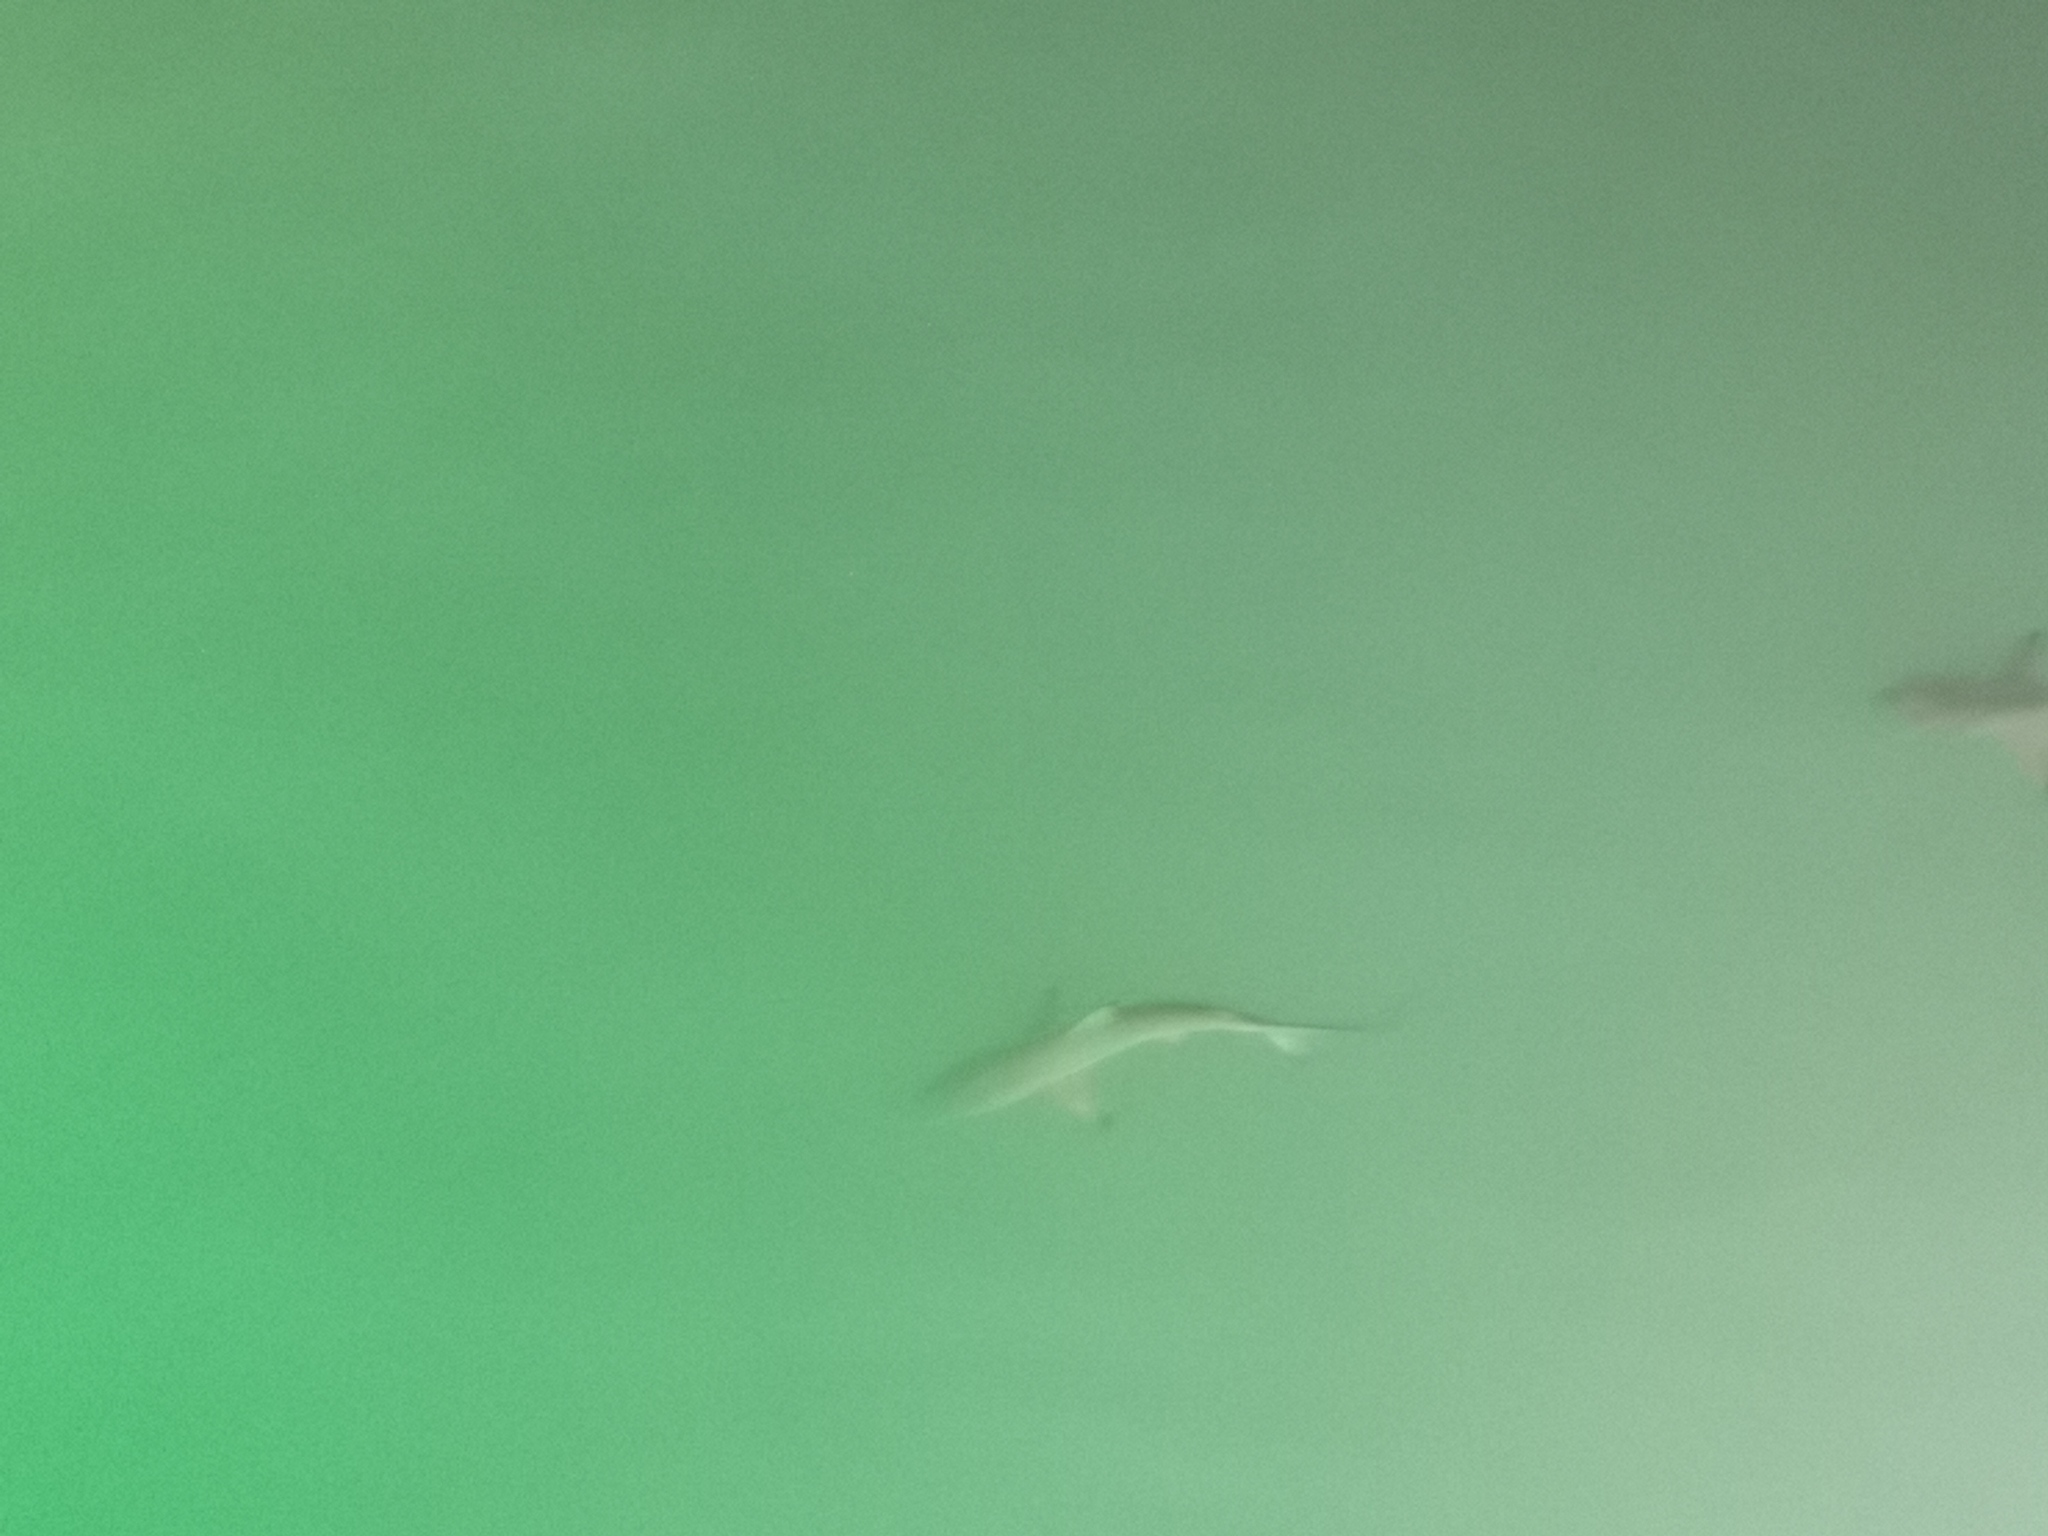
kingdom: Animalia
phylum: Chordata
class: Elasmobranchii
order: Carcharhiniformes
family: Carcharhinidae
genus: Carcharhinus
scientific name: Carcharhinus limbatus
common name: Blacktip shark
